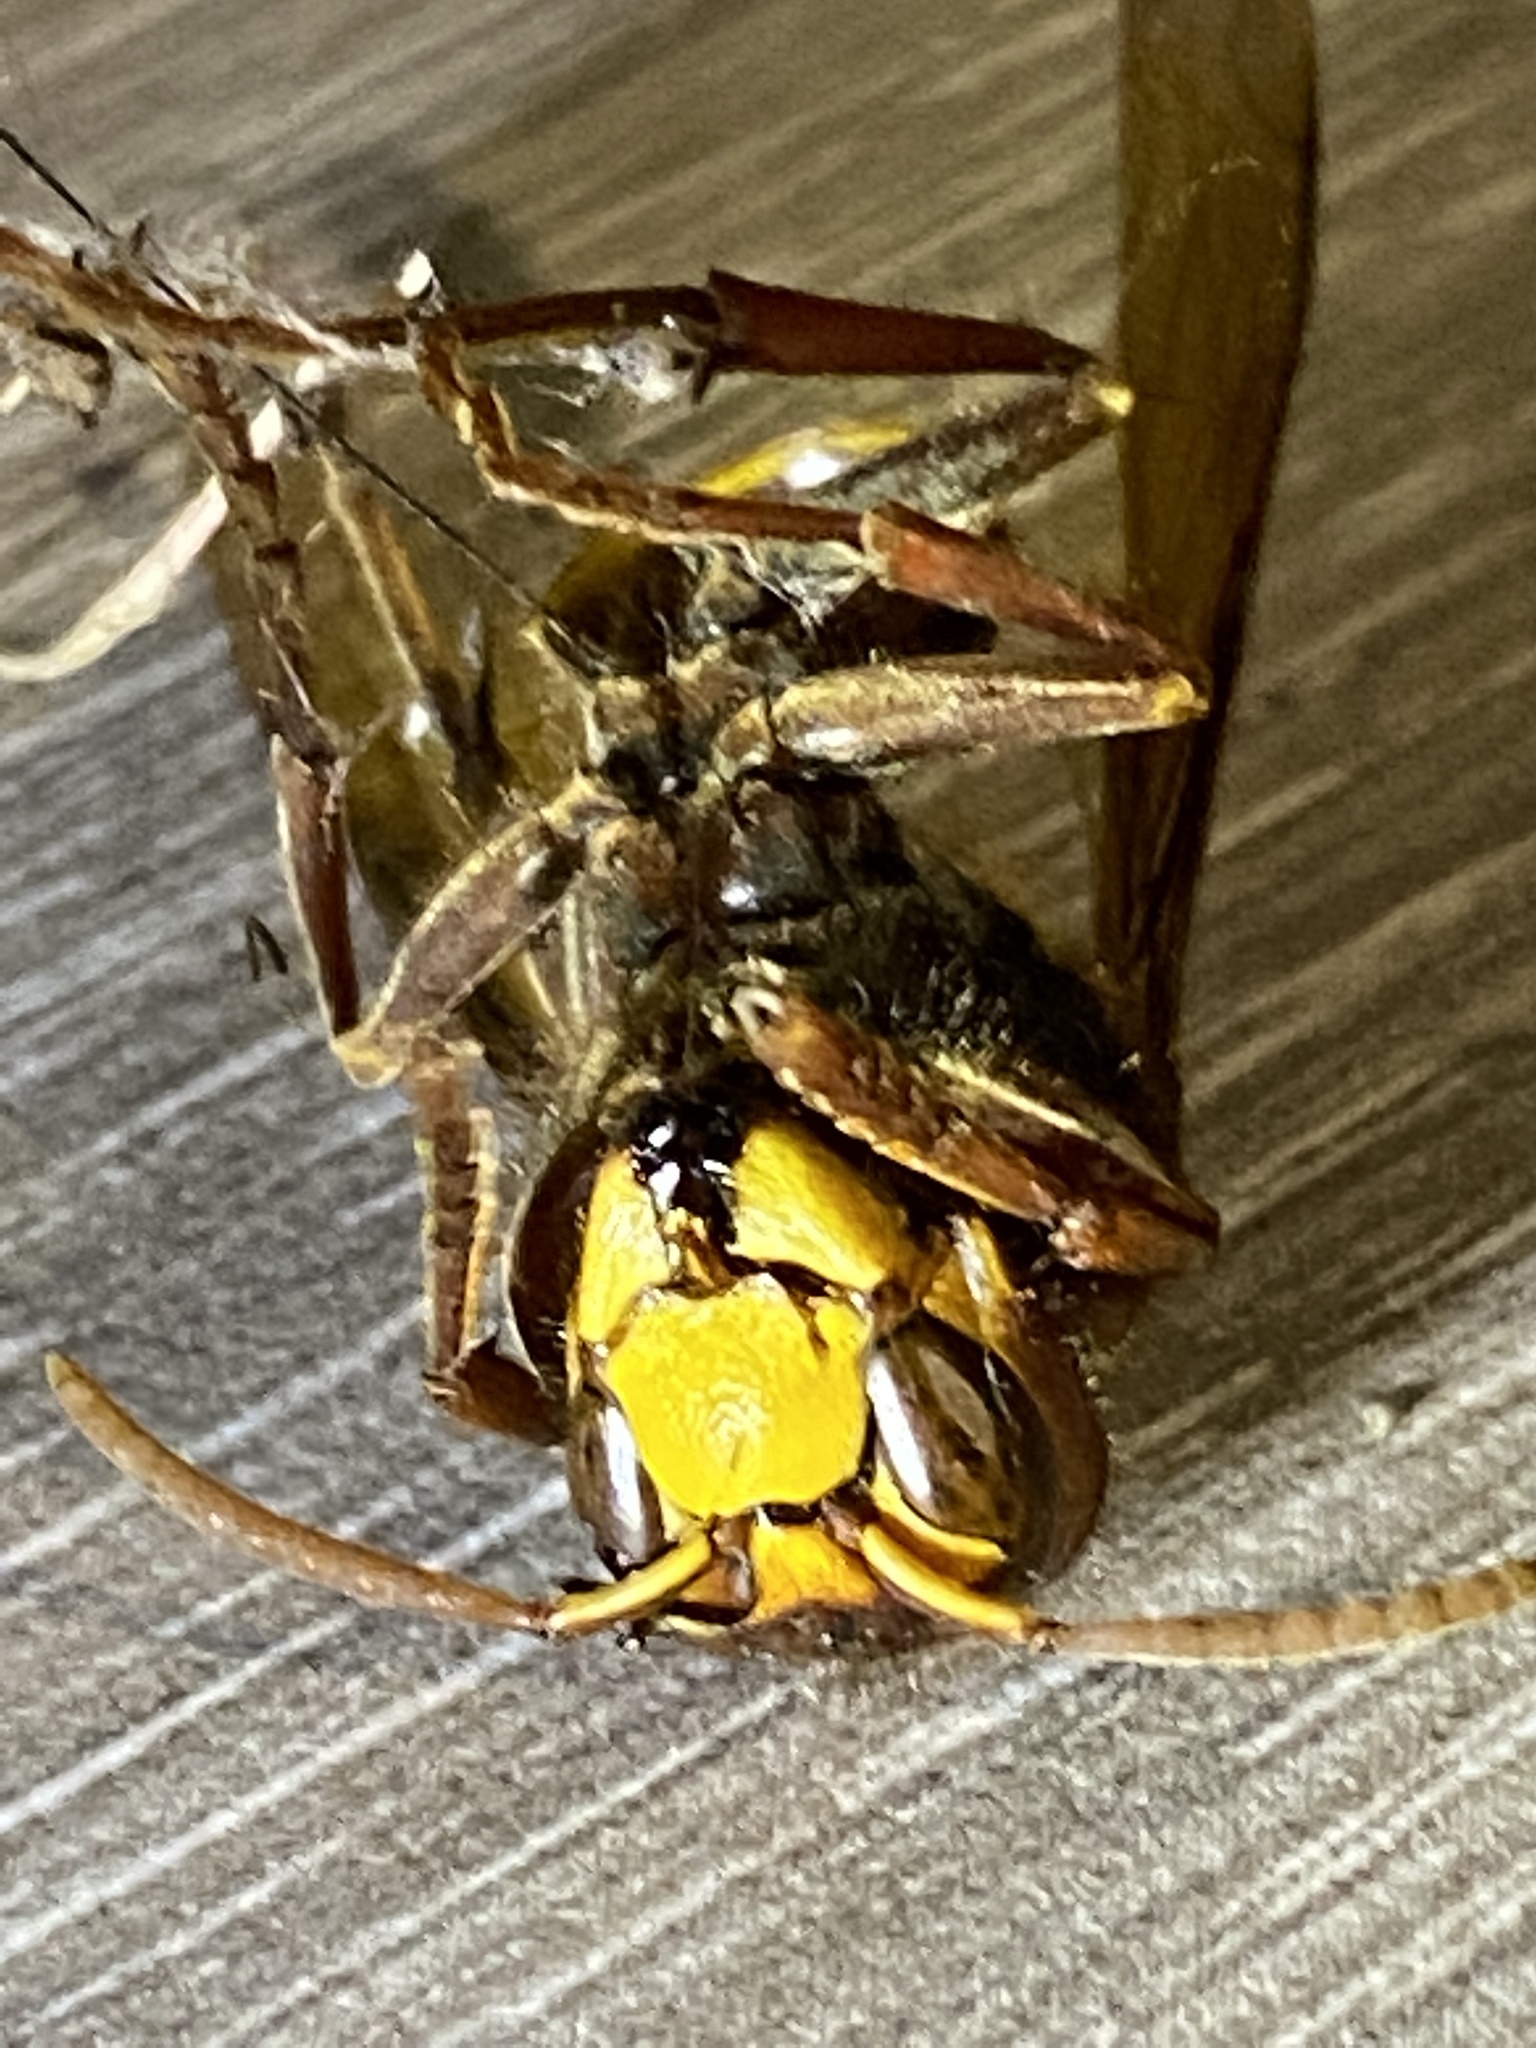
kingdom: Animalia
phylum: Arthropoda
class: Insecta
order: Hymenoptera
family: Vespidae
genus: Vespa
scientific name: Vespa crabro
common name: Hornet
